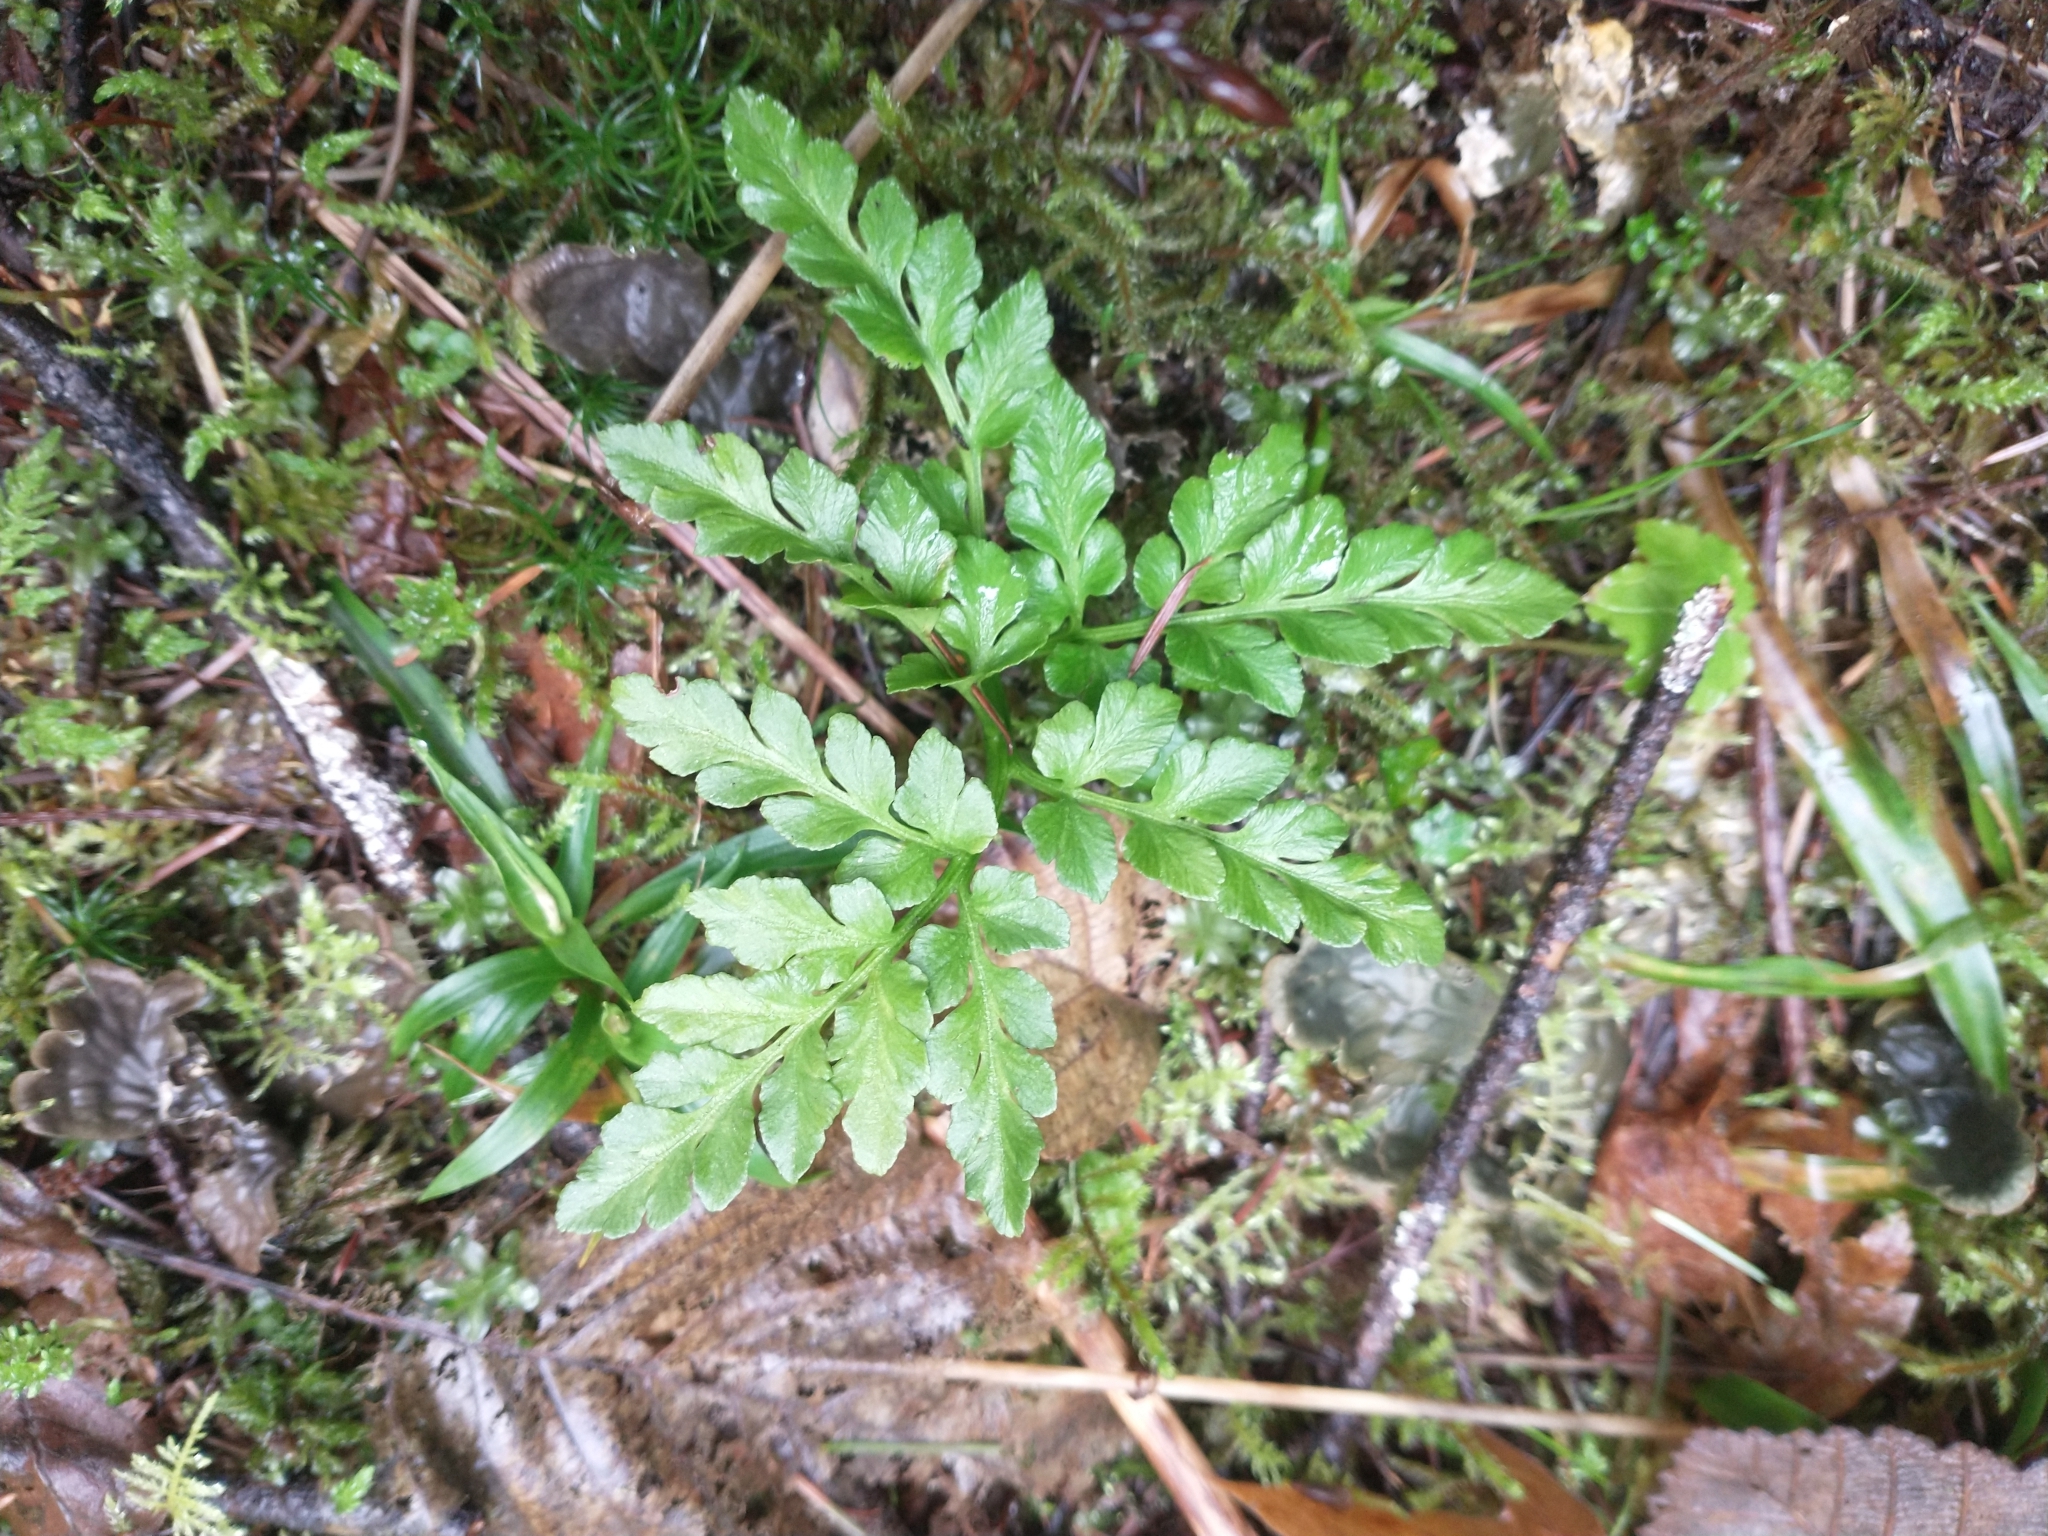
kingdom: Plantae
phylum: Tracheophyta
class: Polypodiopsida
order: Ophioglossales
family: Ophioglossaceae
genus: Sceptridium
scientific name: Sceptridium multifidum
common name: Leathery grape fern
